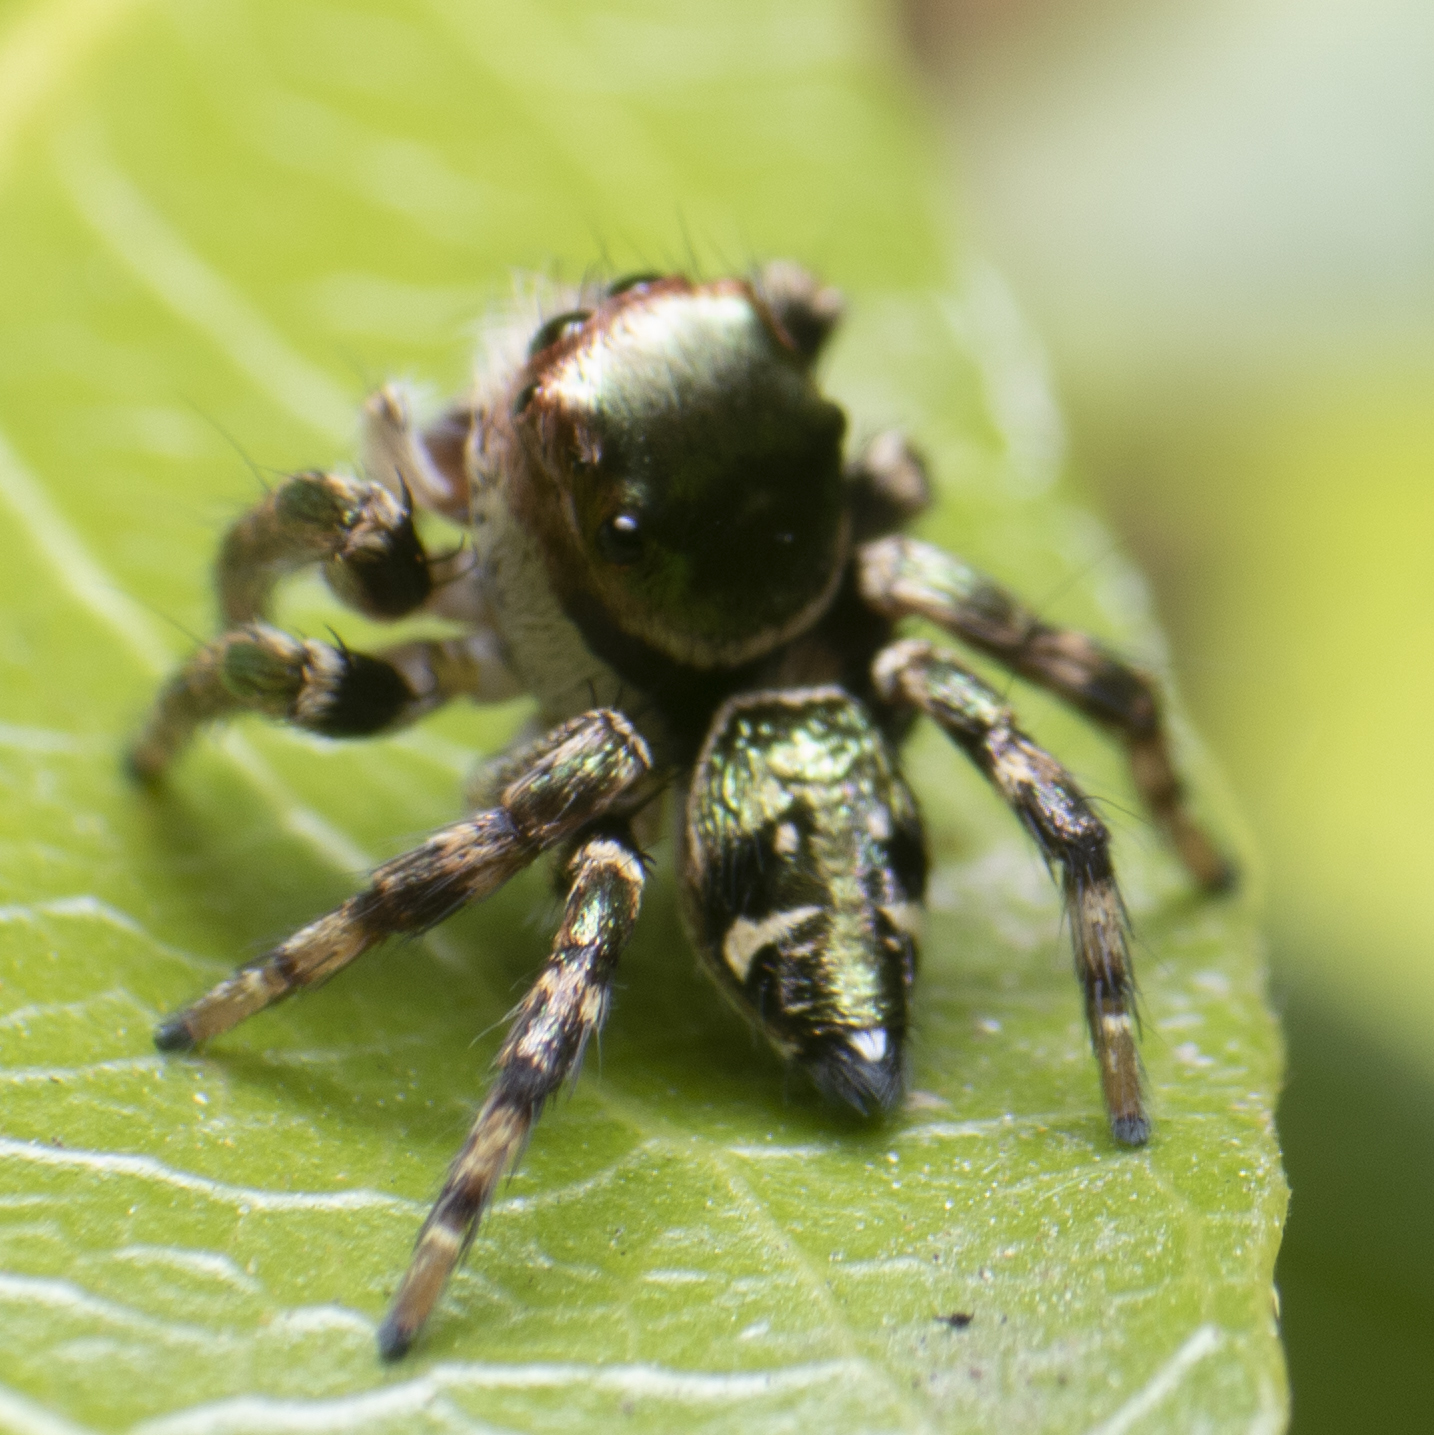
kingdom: Animalia
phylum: Arthropoda
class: Arachnida
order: Araneae
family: Salticidae
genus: Carrhotus
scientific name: Carrhotus albosetosus
